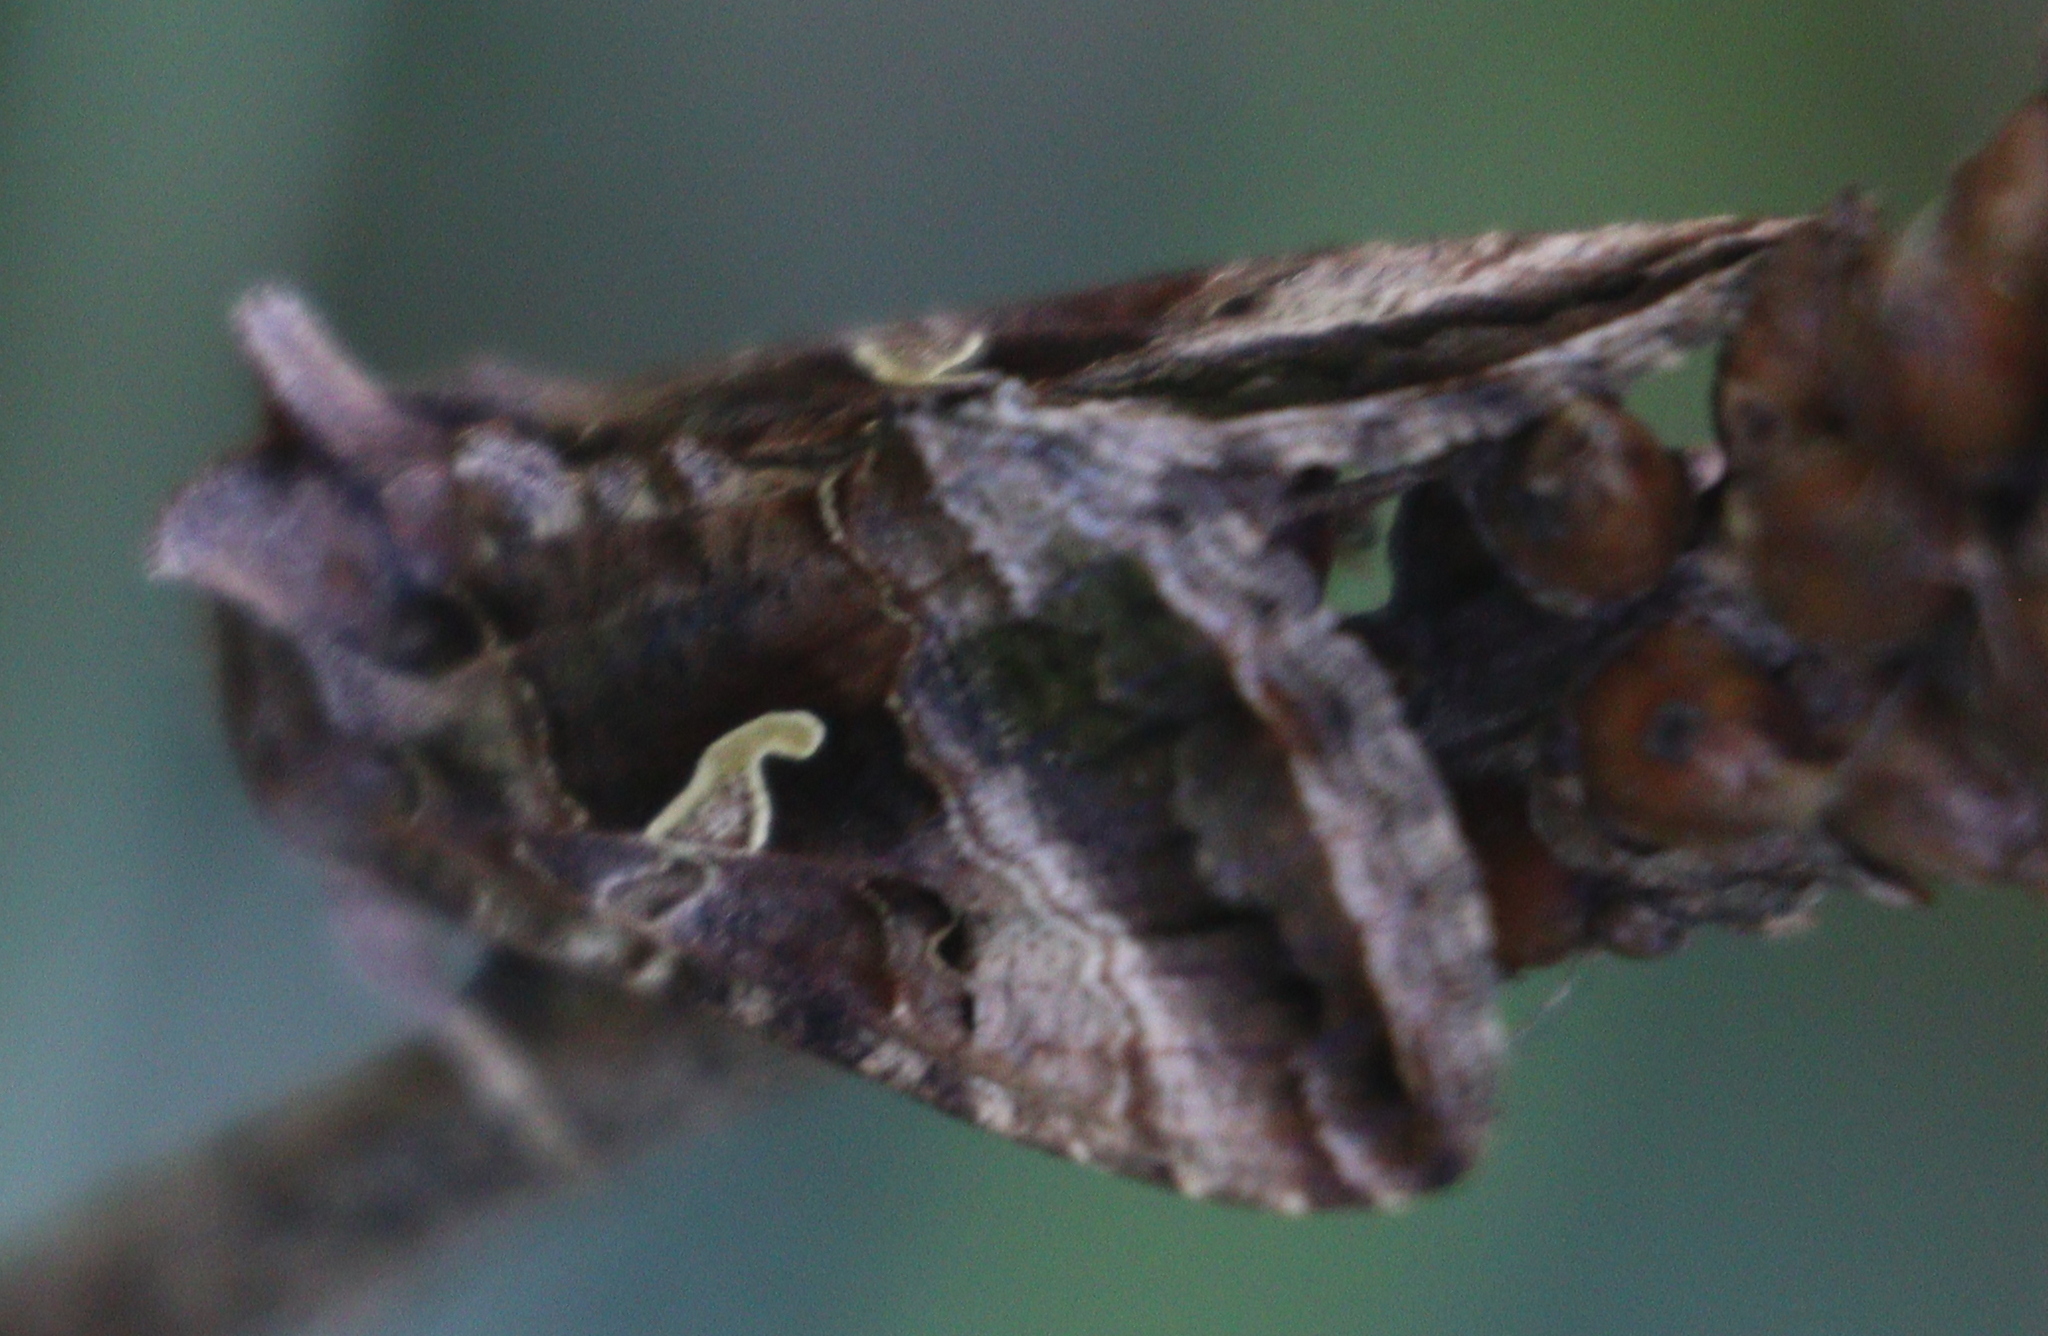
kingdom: Animalia
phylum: Arthropoda
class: Insecta
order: Lepidoptera
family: Noctuidae
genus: Autographa
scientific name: Autographa gamma
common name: Silver y
